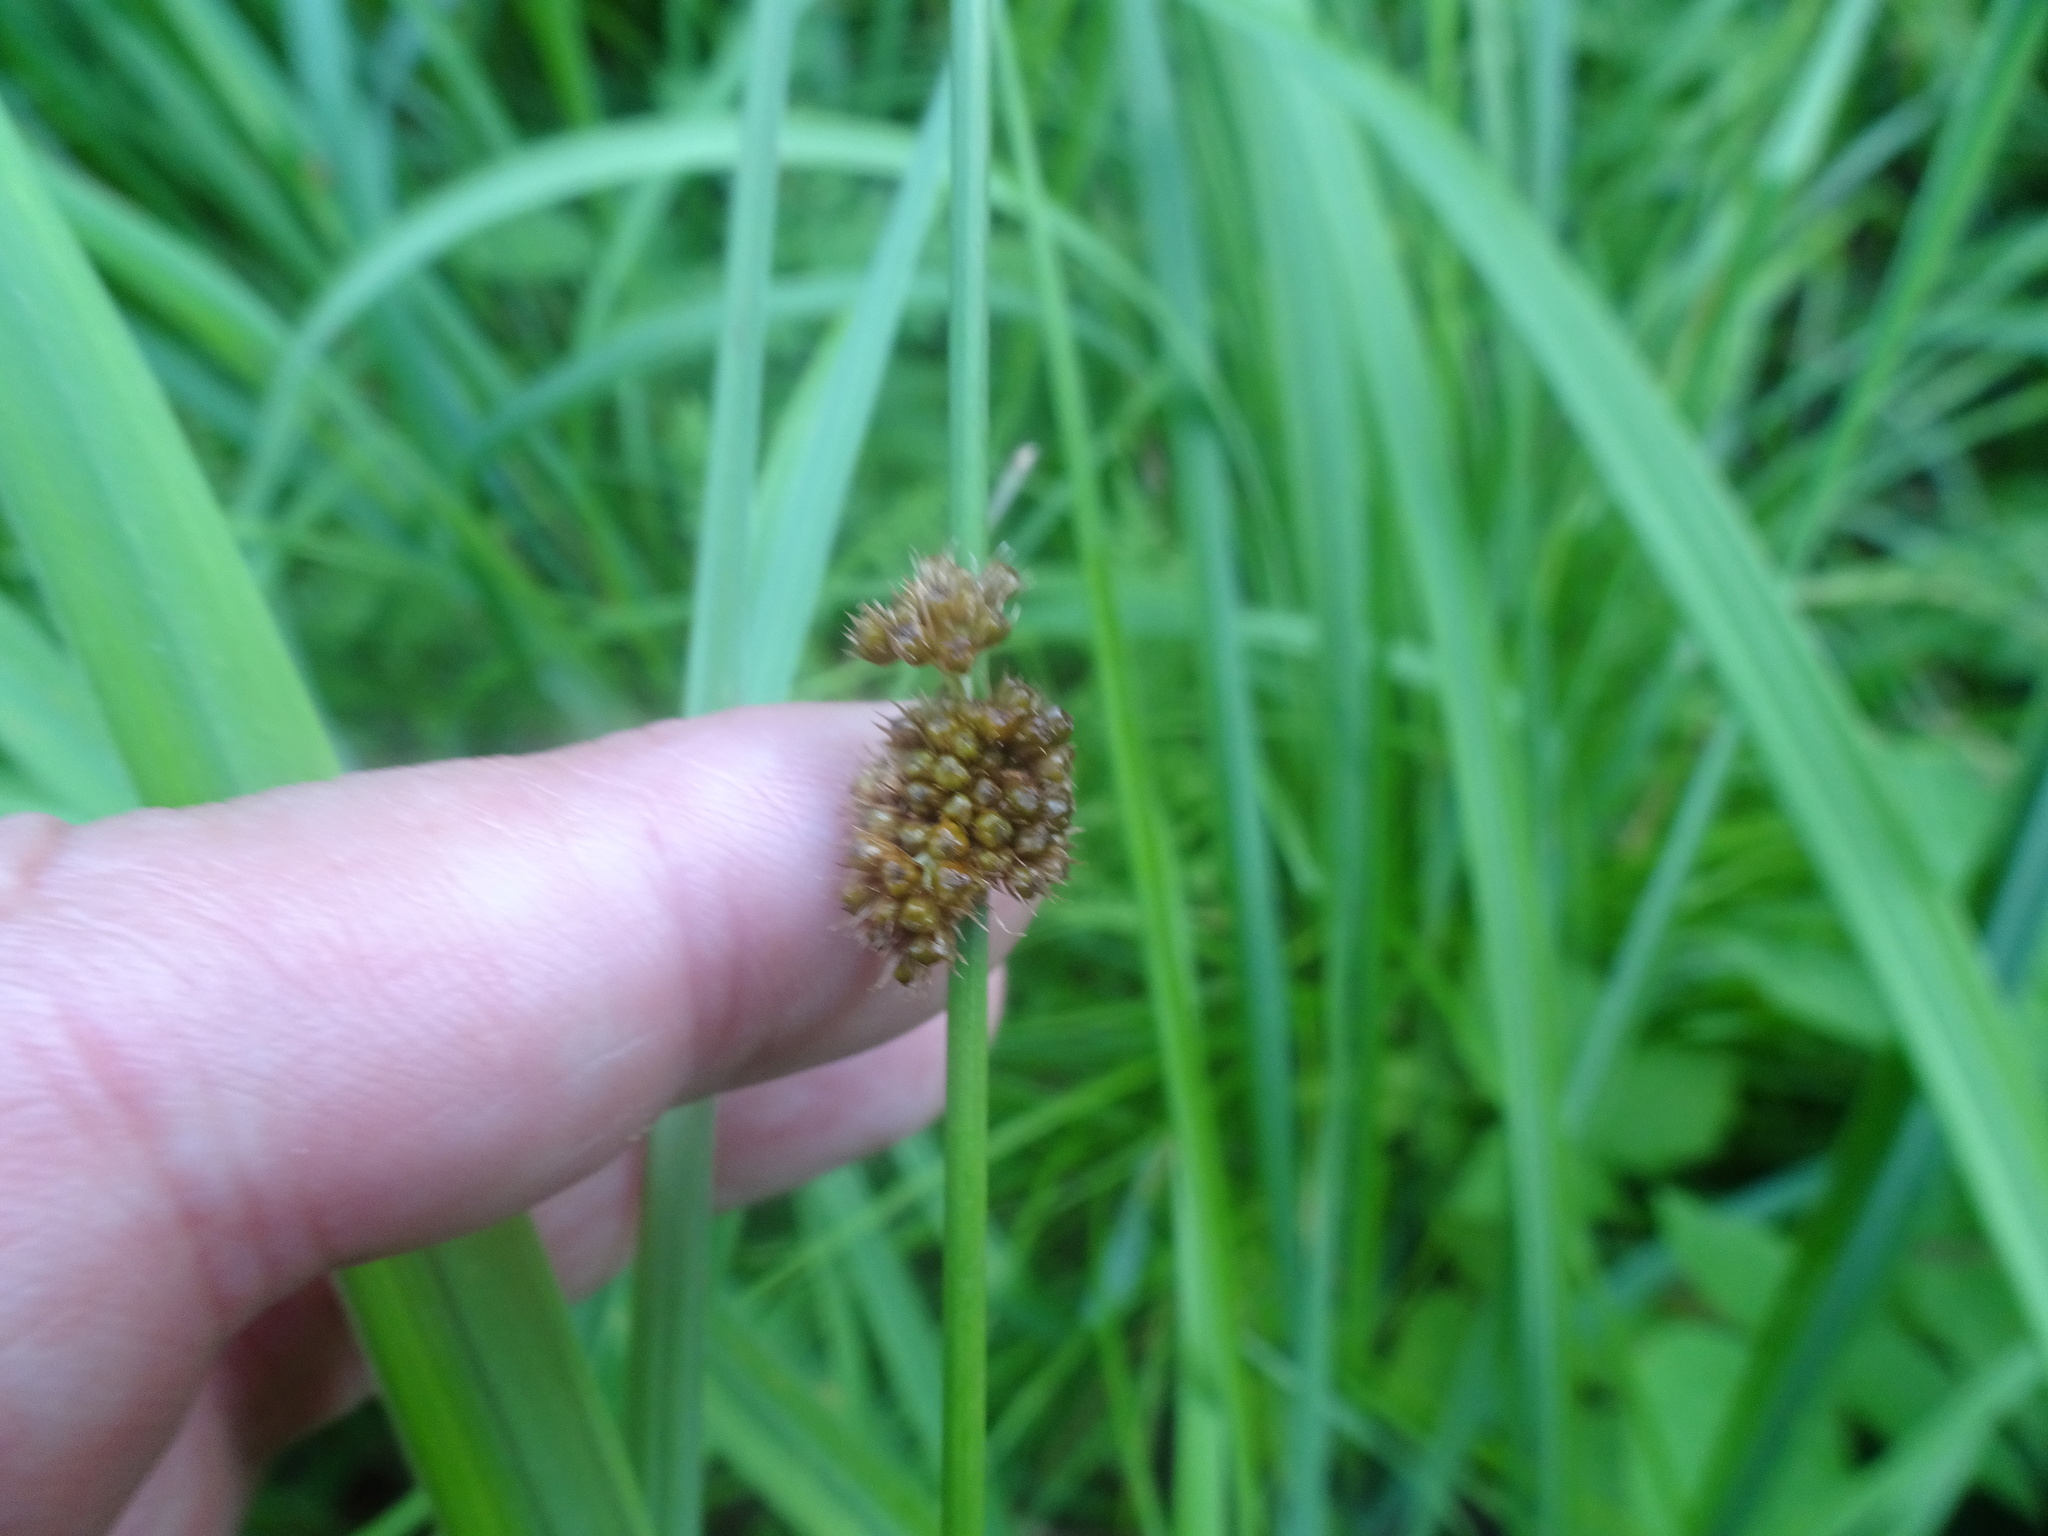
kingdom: Plantae
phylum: Tracheophyta
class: Liliopsida
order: Poales
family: Juncaceae
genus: Juncus
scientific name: Juncus conglomeratus
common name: Compact rush
